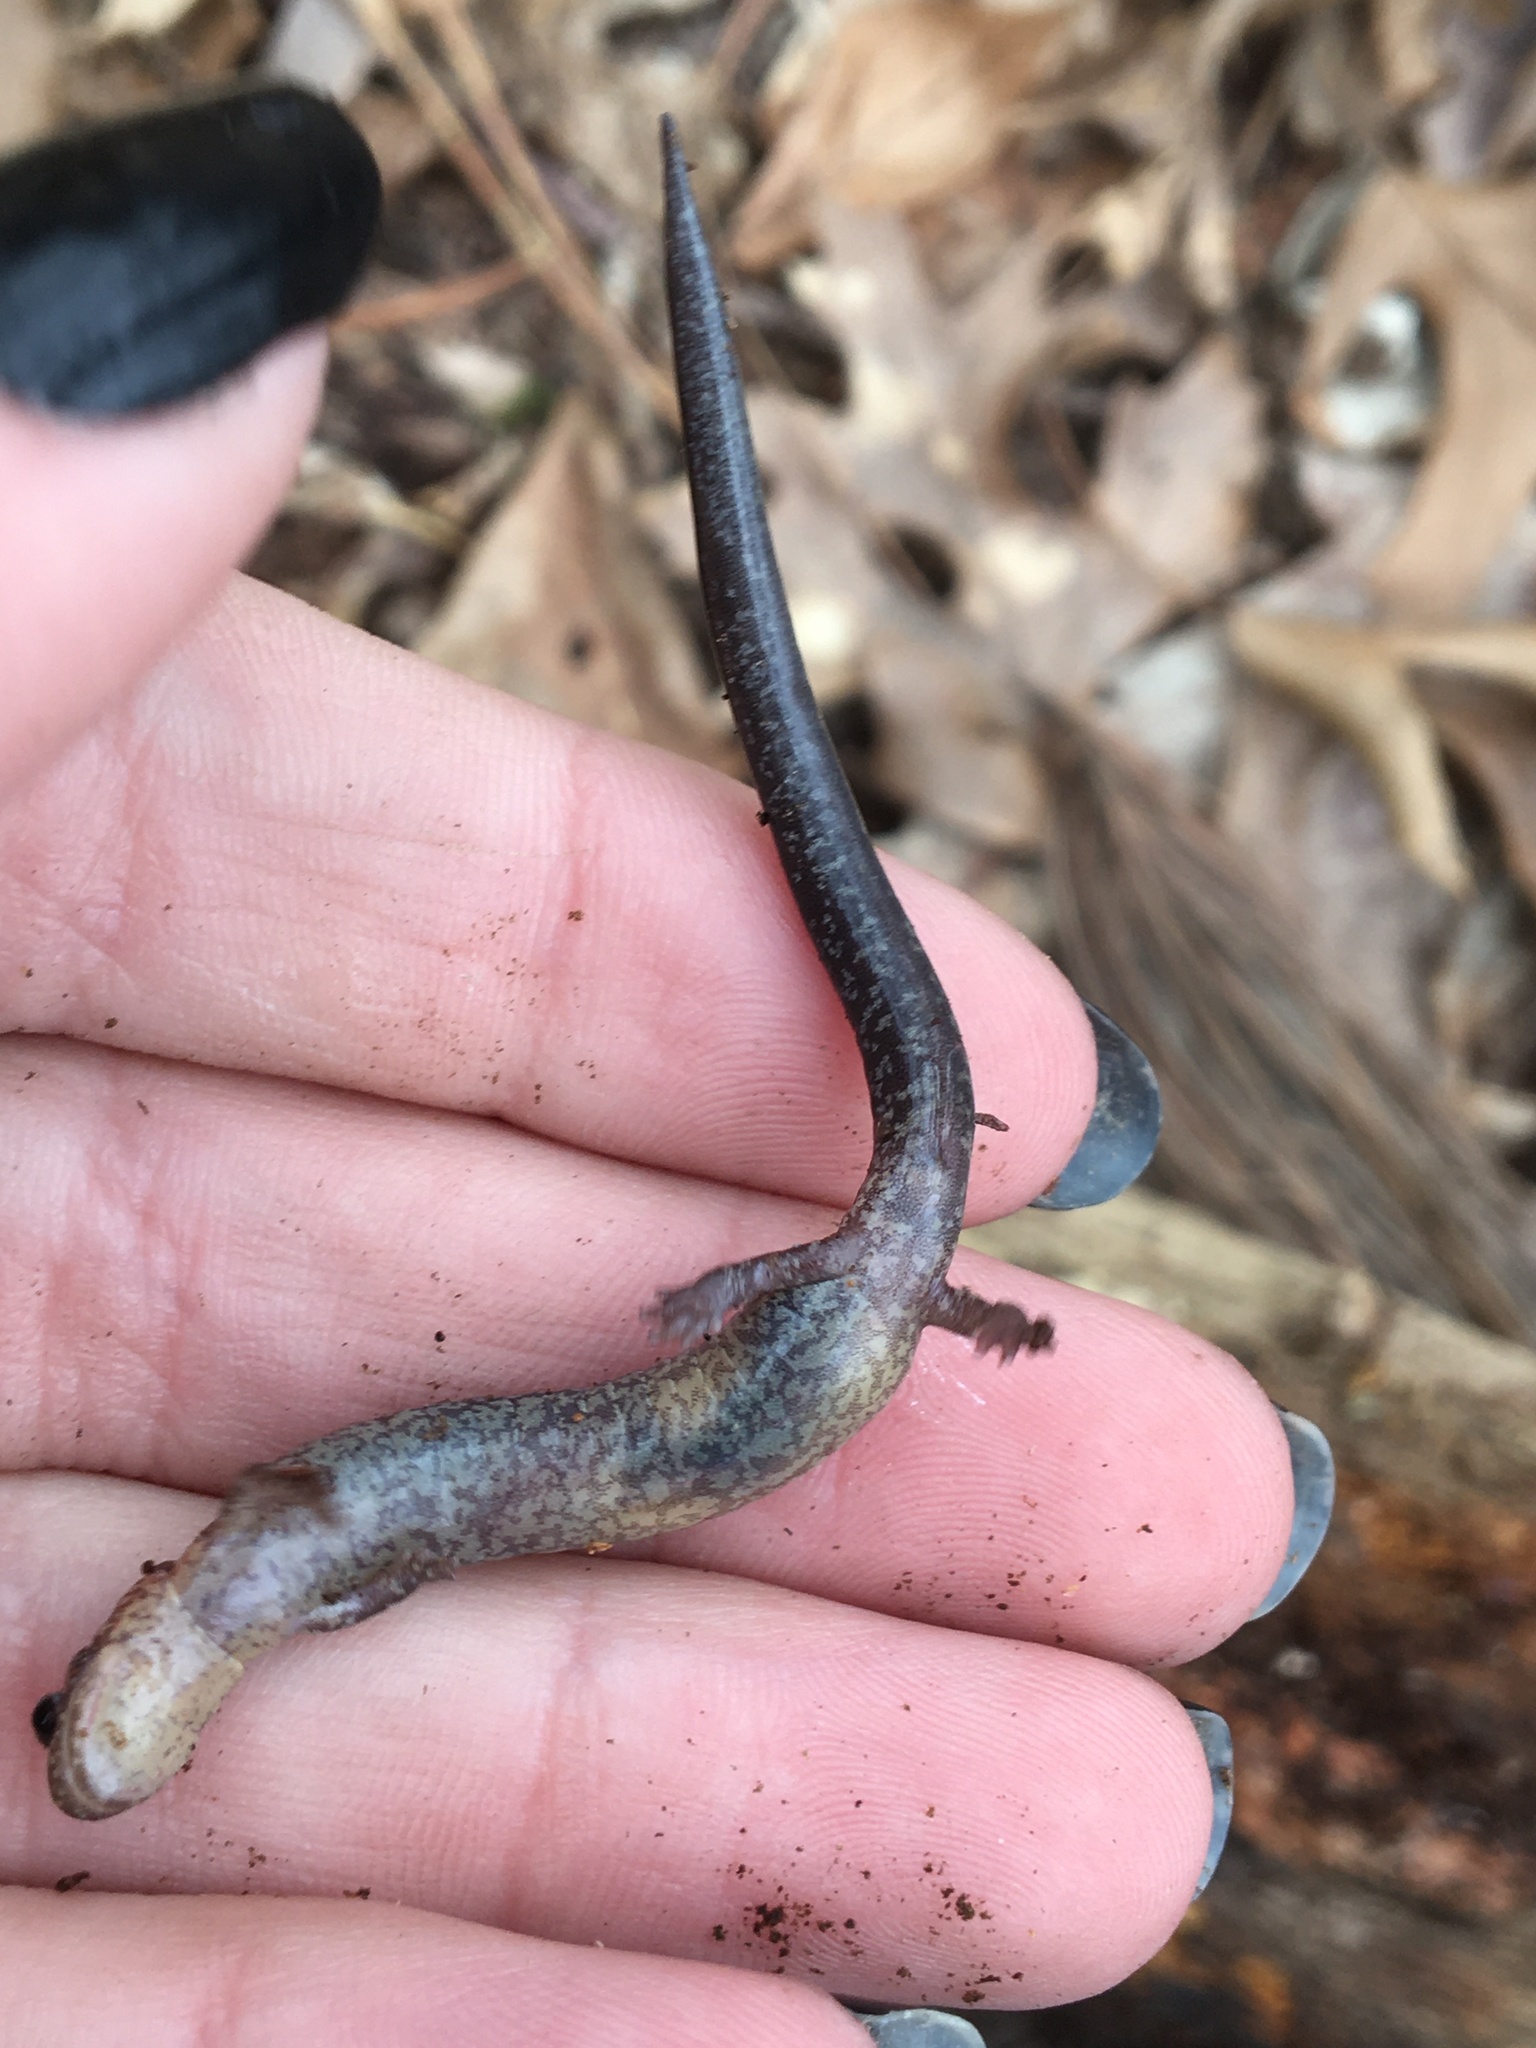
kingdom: Animalia
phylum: Chordata
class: Amphibia
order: Caudata
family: Plethodontidae
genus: Plethodon
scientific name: Plethodon cinereus
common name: Redback salamander
